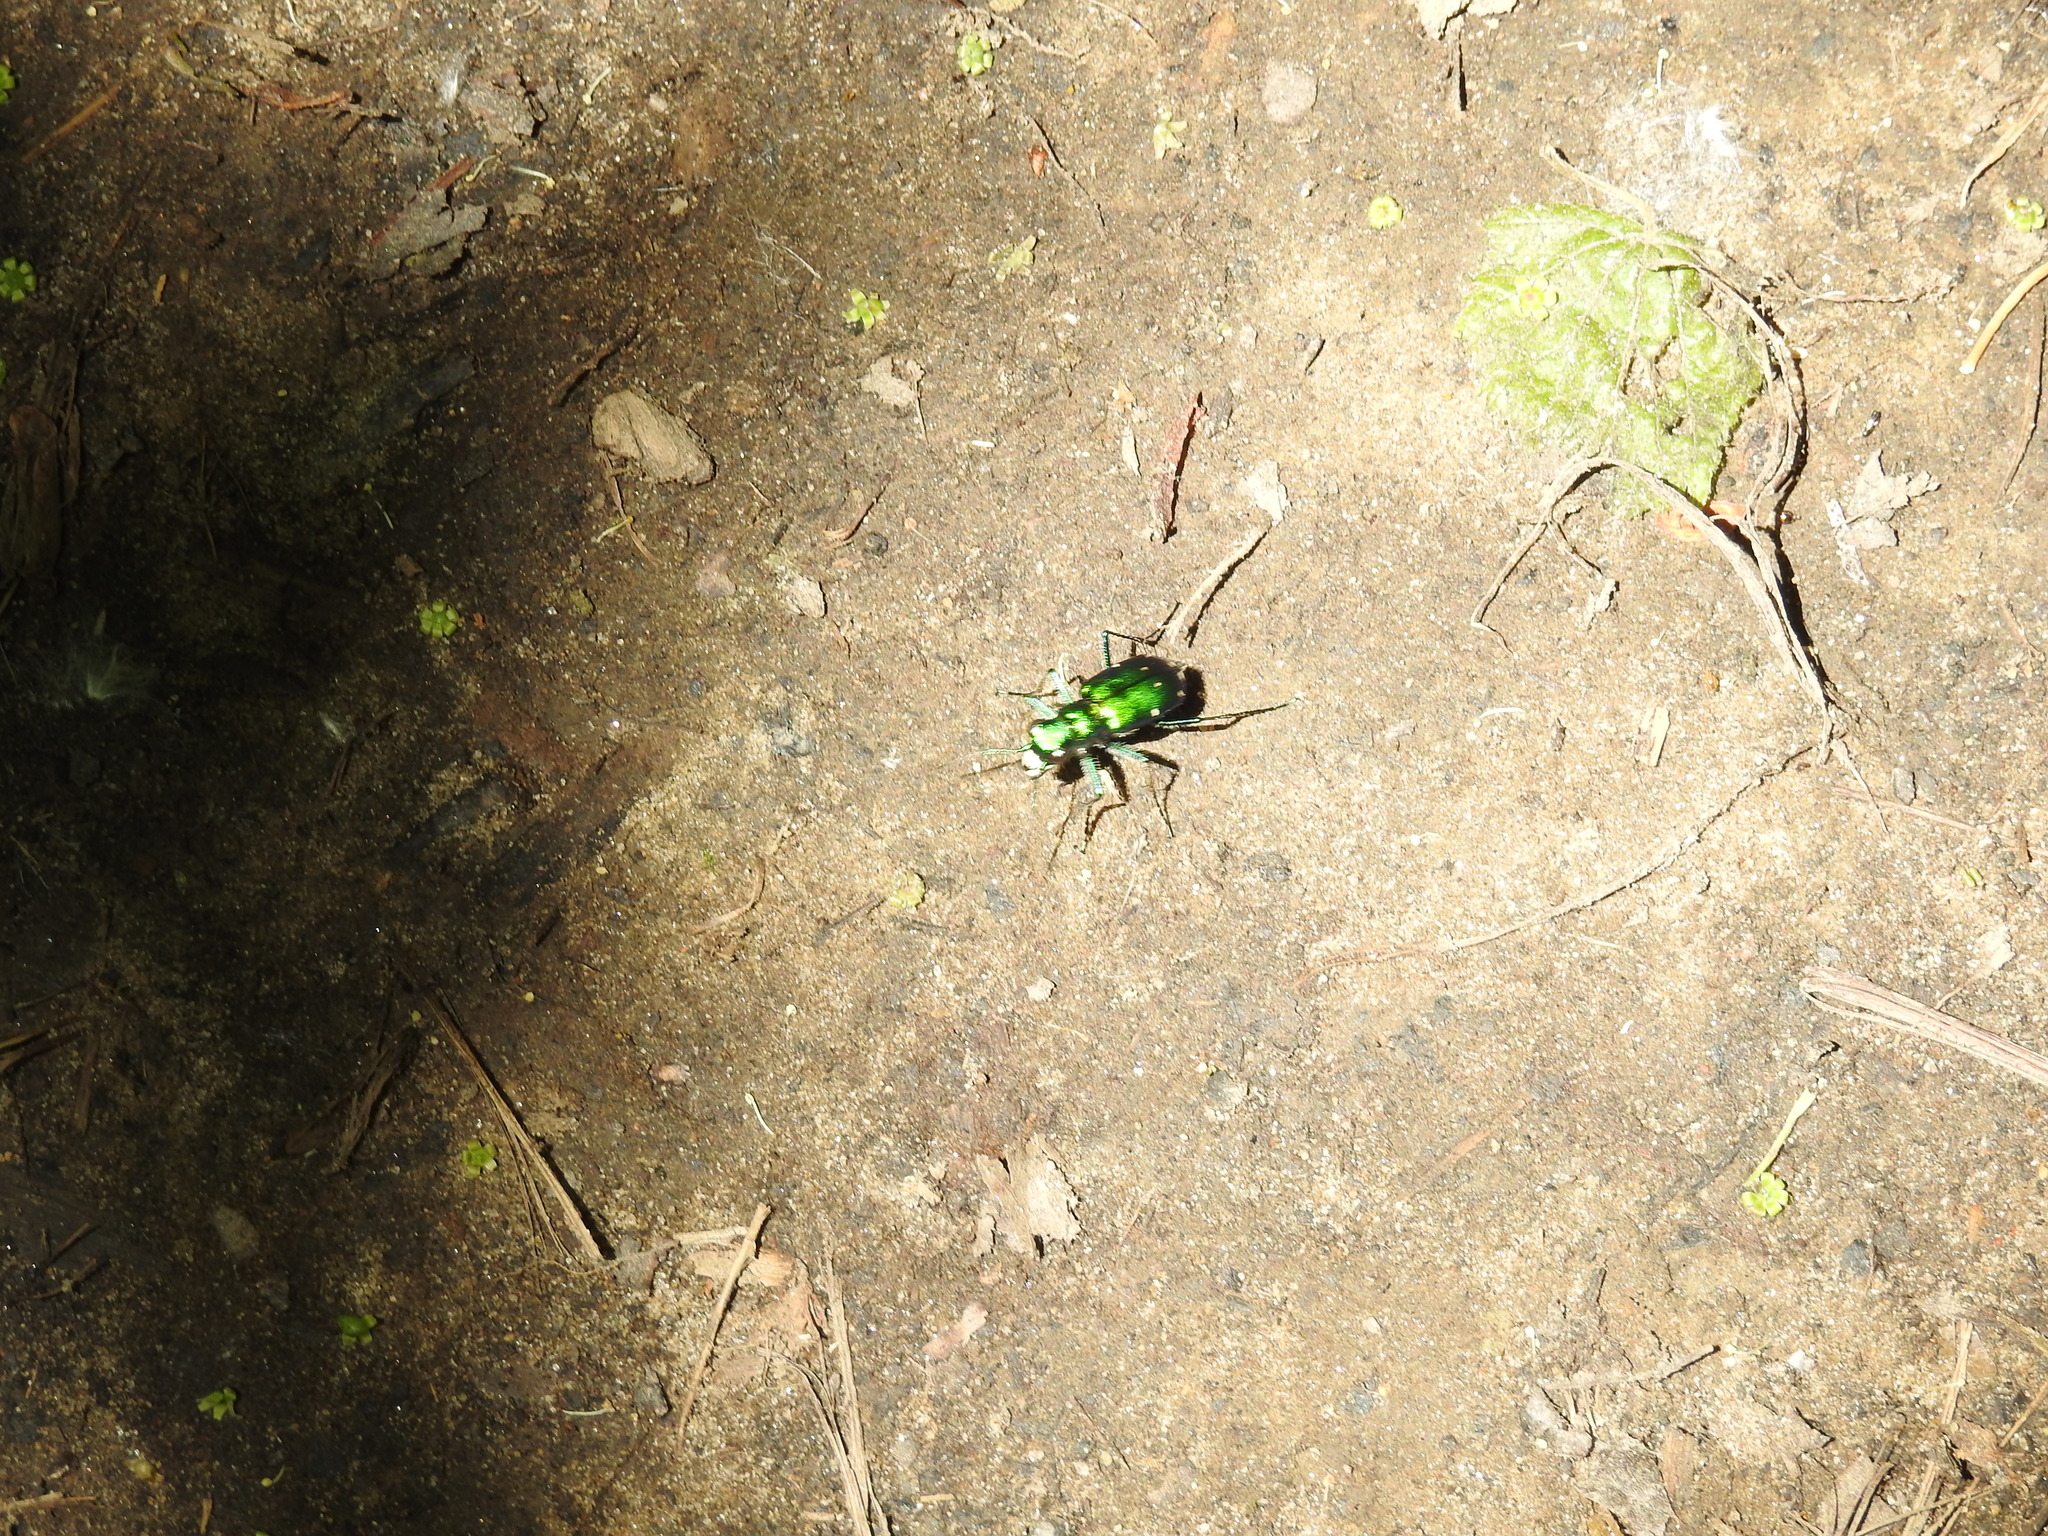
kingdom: Animalia
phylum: Arthropoda
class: Insecta
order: Coleoptera
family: Carabidae
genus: Cicindela
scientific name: Cicindela sexguttata
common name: Six-spotted tiger beetle
